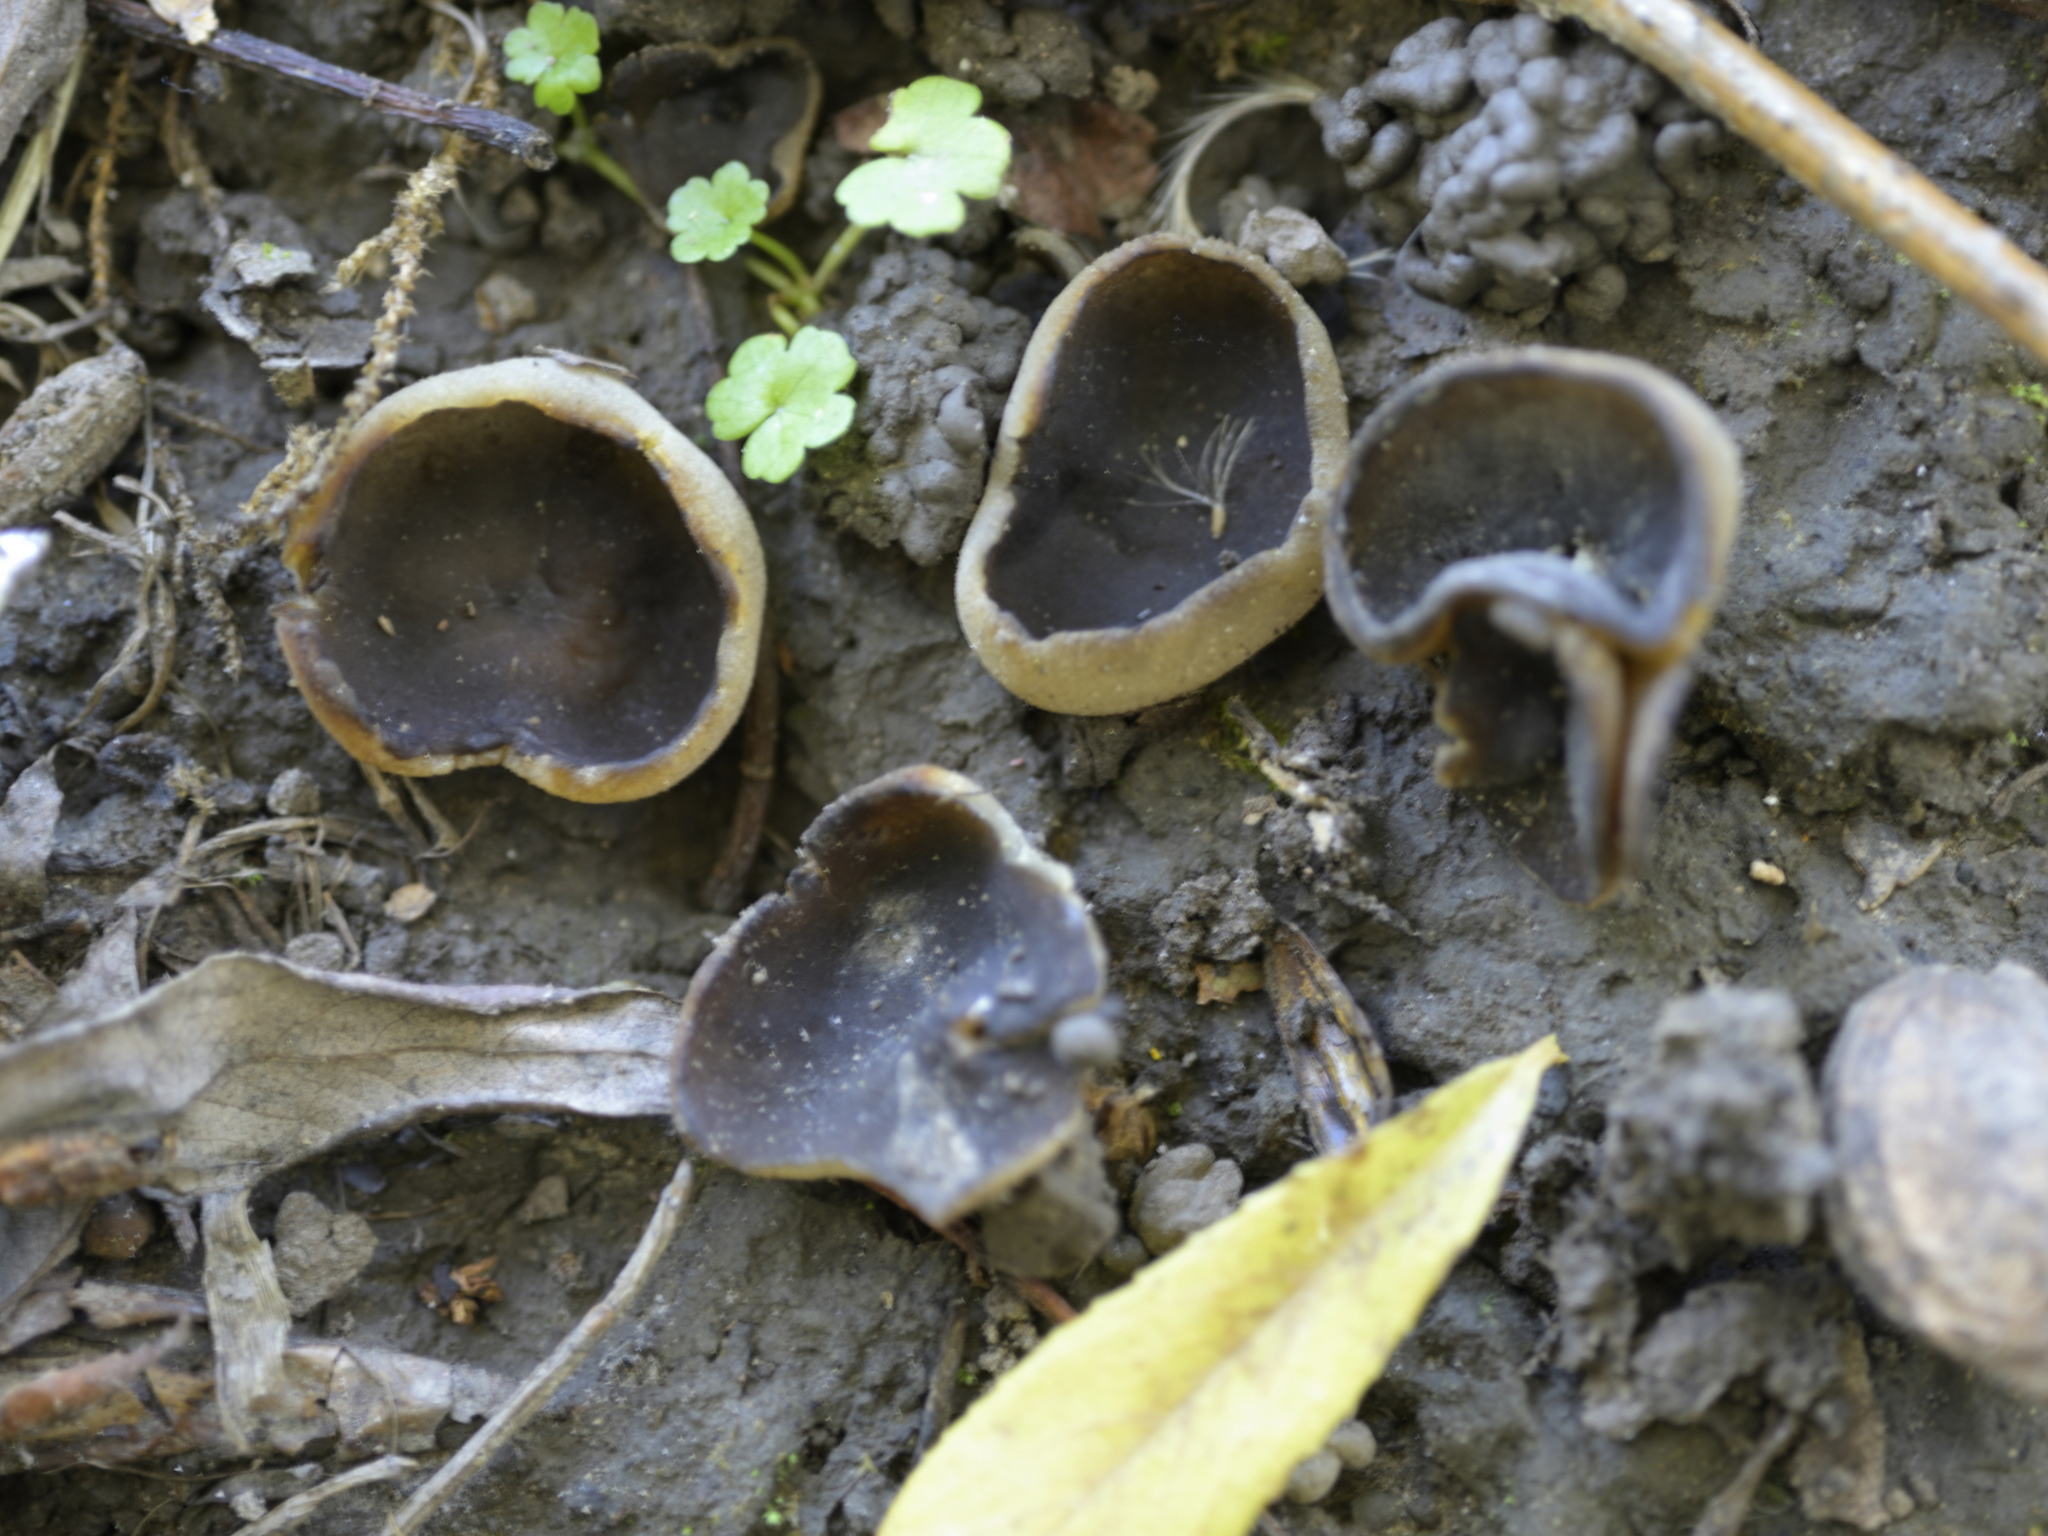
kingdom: Fungi
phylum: Ascomycota
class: Pezizomycetes
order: Pezizales
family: Pezizaceae
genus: Paragalactinia
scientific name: Paragalactinia succosa
